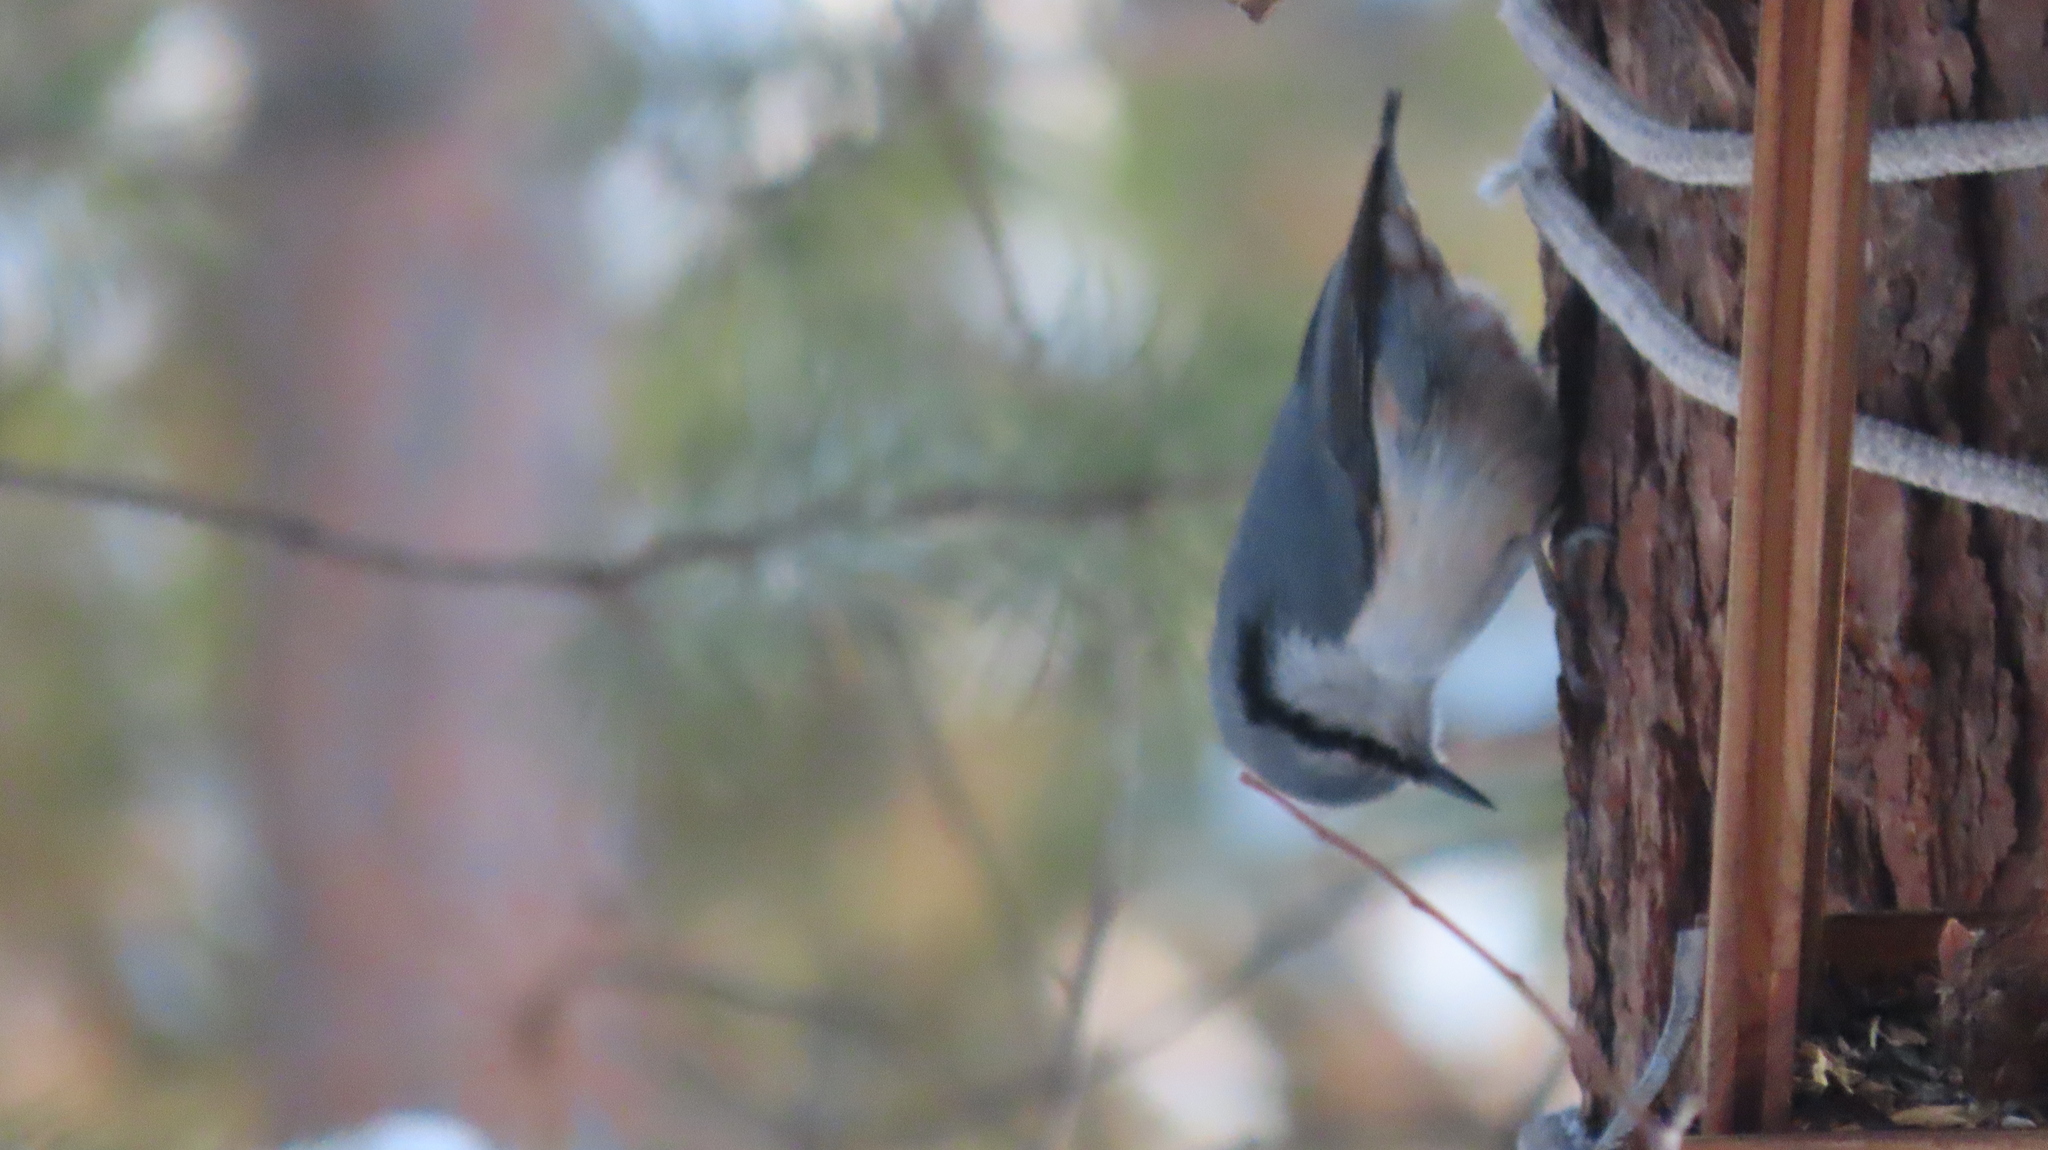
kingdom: Animalia
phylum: Chordata
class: Aves
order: Passeriformes
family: Sittidae
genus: Sitta
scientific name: Sitta europaea
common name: Eurasian nuthatch
